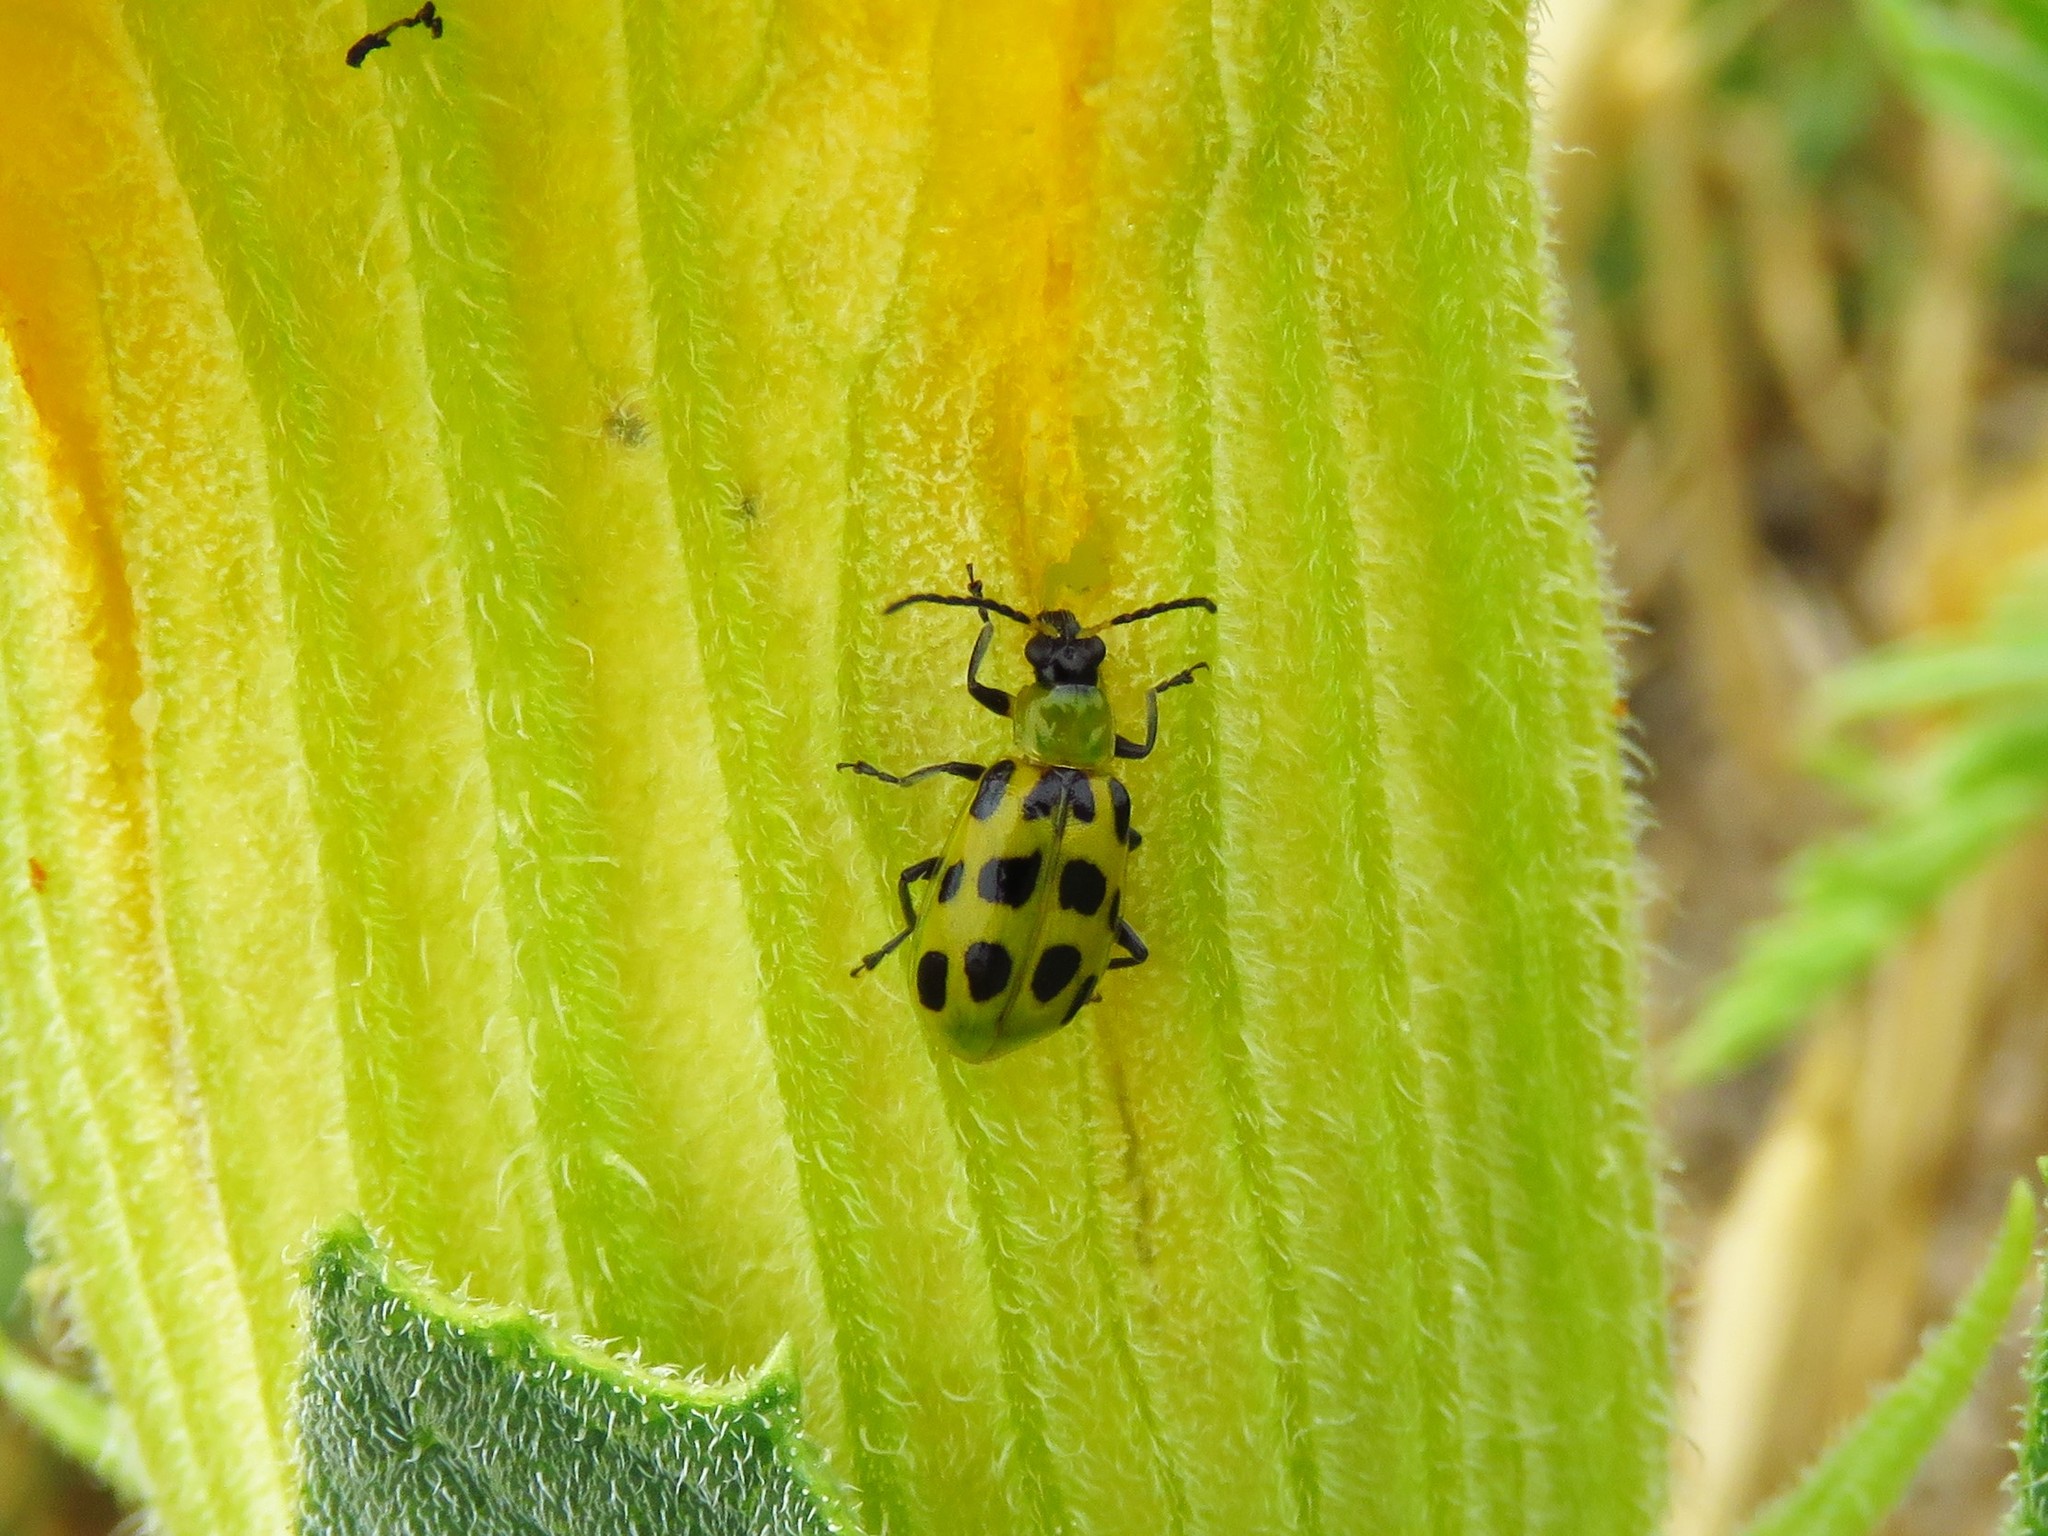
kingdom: Animalia
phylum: Arthropoda
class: Insecta
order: Coleoptera
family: Chrysomelidae
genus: Diabrotica
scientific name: Diabrotica undecimpunctata
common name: Spotted cucumber beetle
